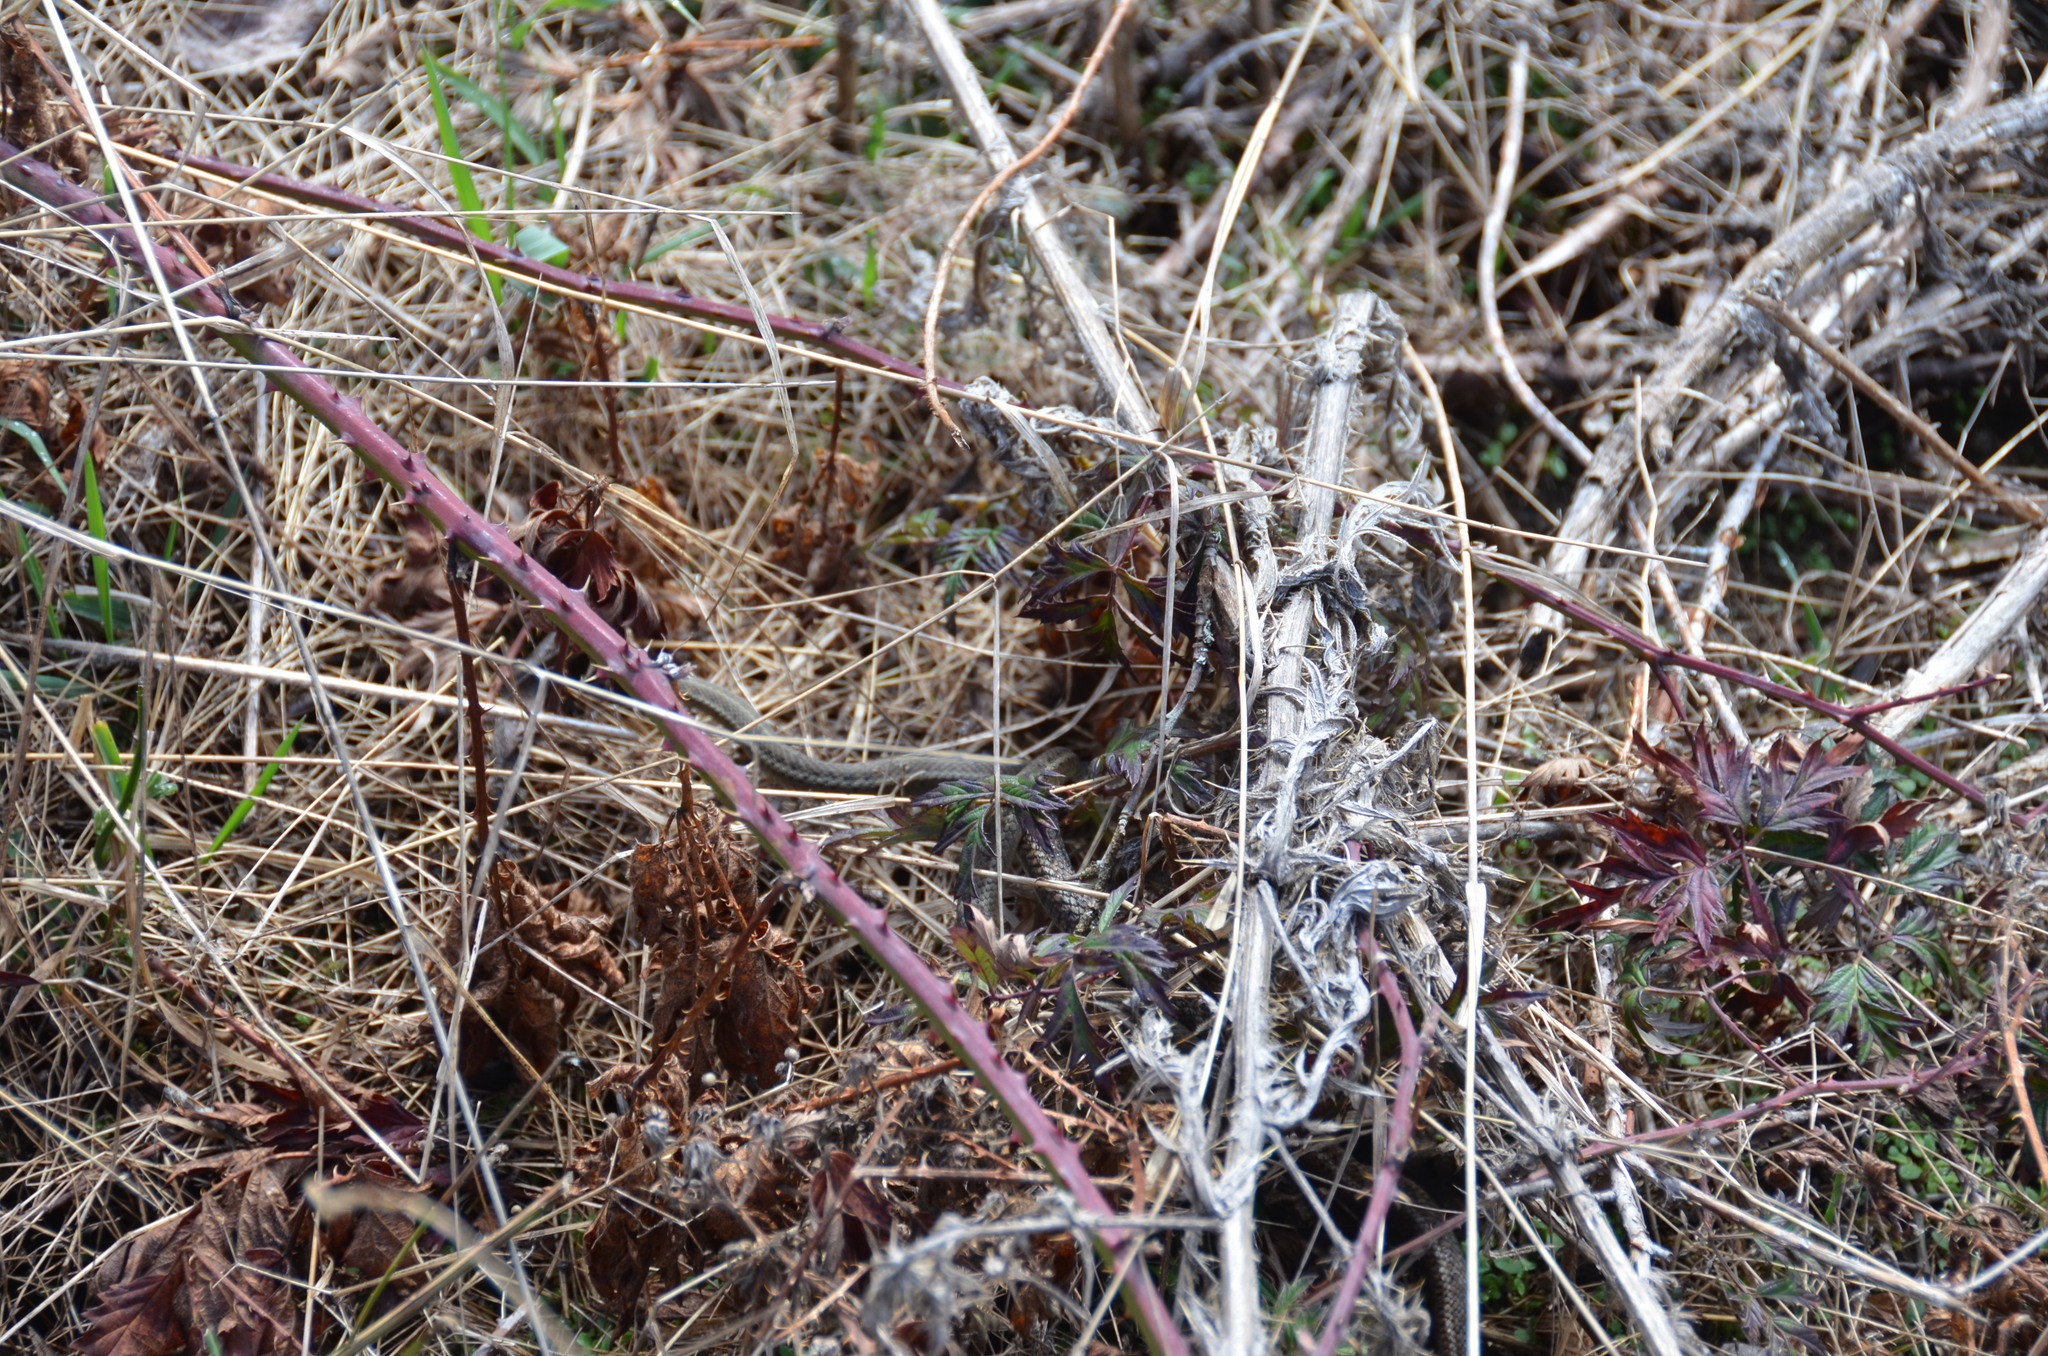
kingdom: Animalia
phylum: Chordata
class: Squamata
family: Colubridae
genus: Thamnophis
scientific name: Thamnophis ordinoides
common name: Northwestern garter snake
